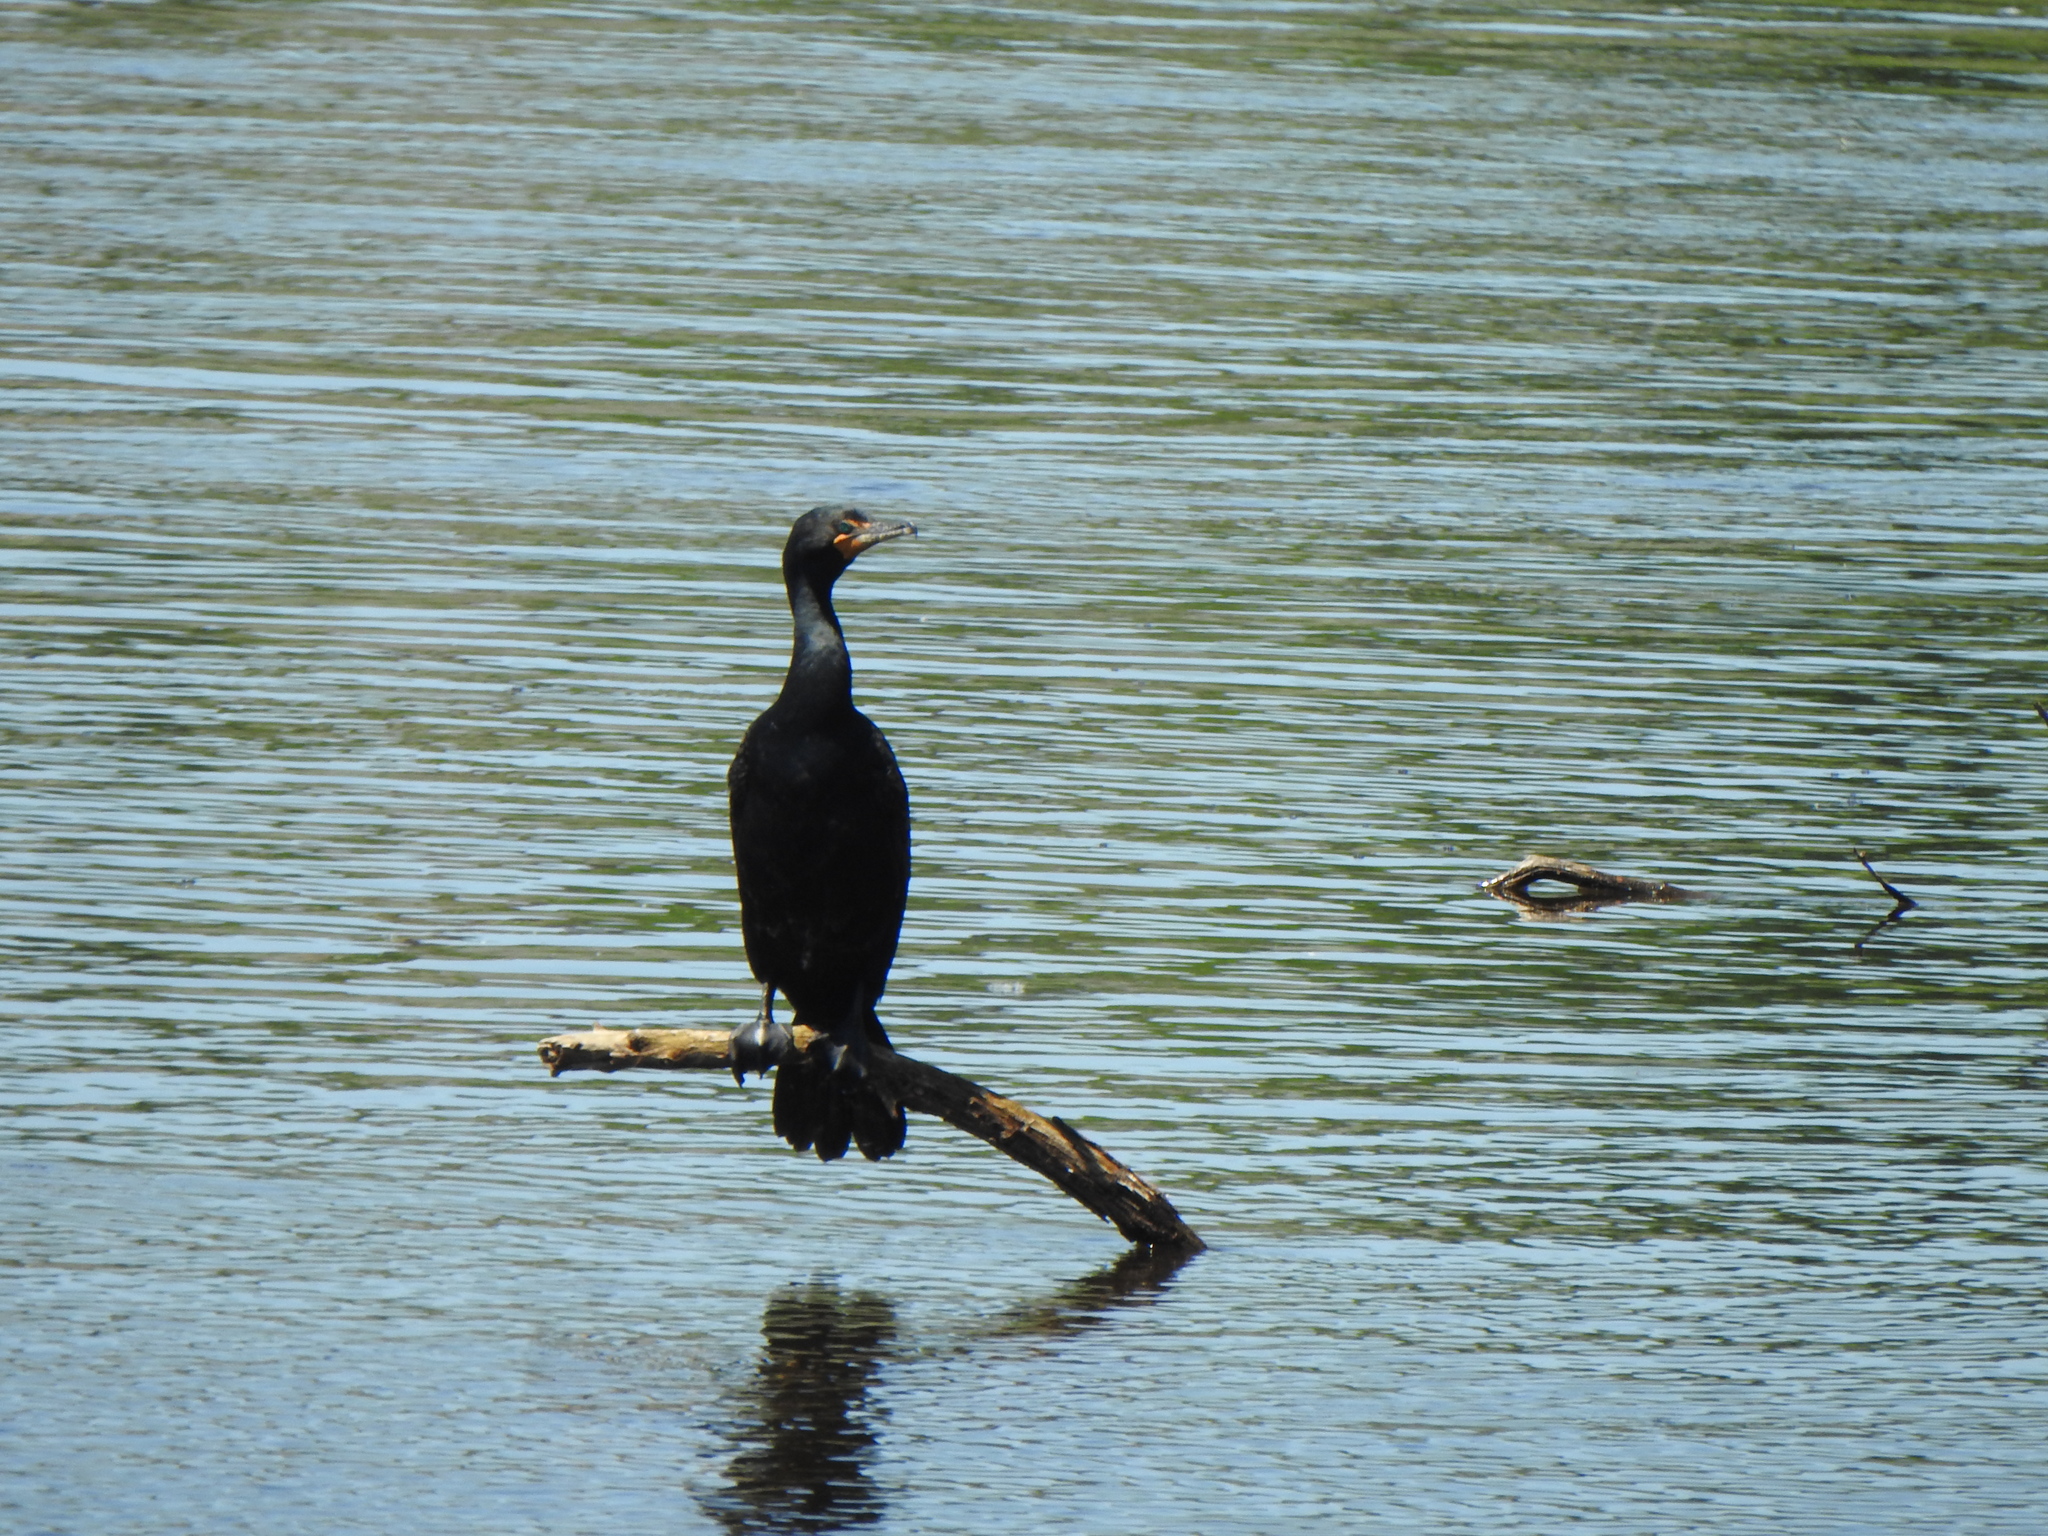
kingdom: Animalia
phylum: Chordata
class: Aves
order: Suliformes
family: Phalacrocoracidae
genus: Phalacrocorax
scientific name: Phalacrocorax auritus
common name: Double-crested cormorant
